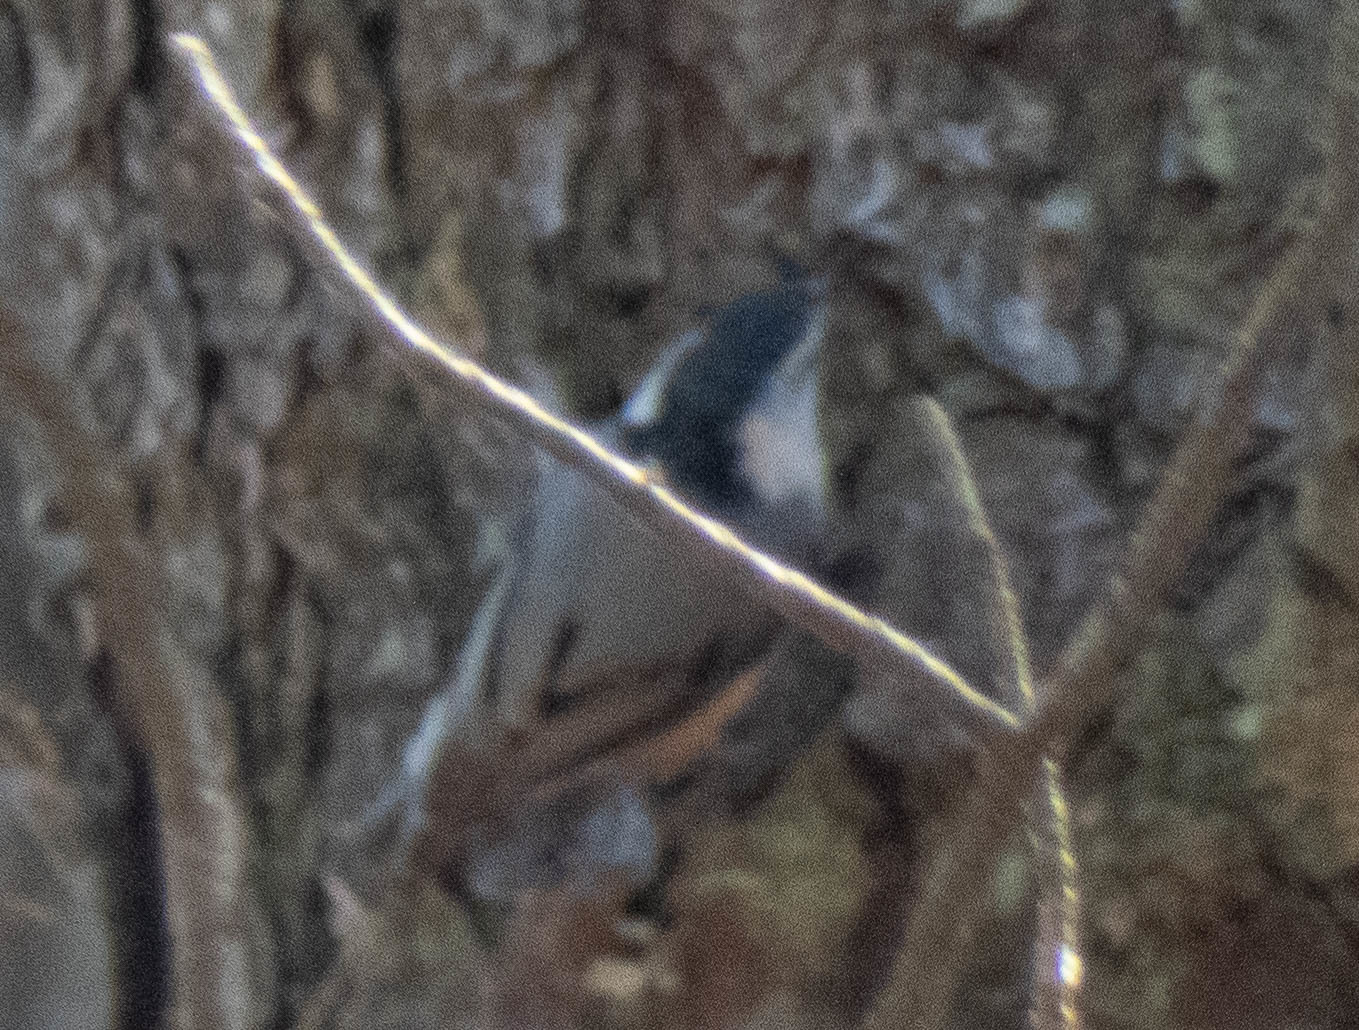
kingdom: Animalia
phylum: Chordata
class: Aves
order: Passeriformes
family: Sittidae
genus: Sitta
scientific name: Sitta carolinensis
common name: White-breasted nuthatch
